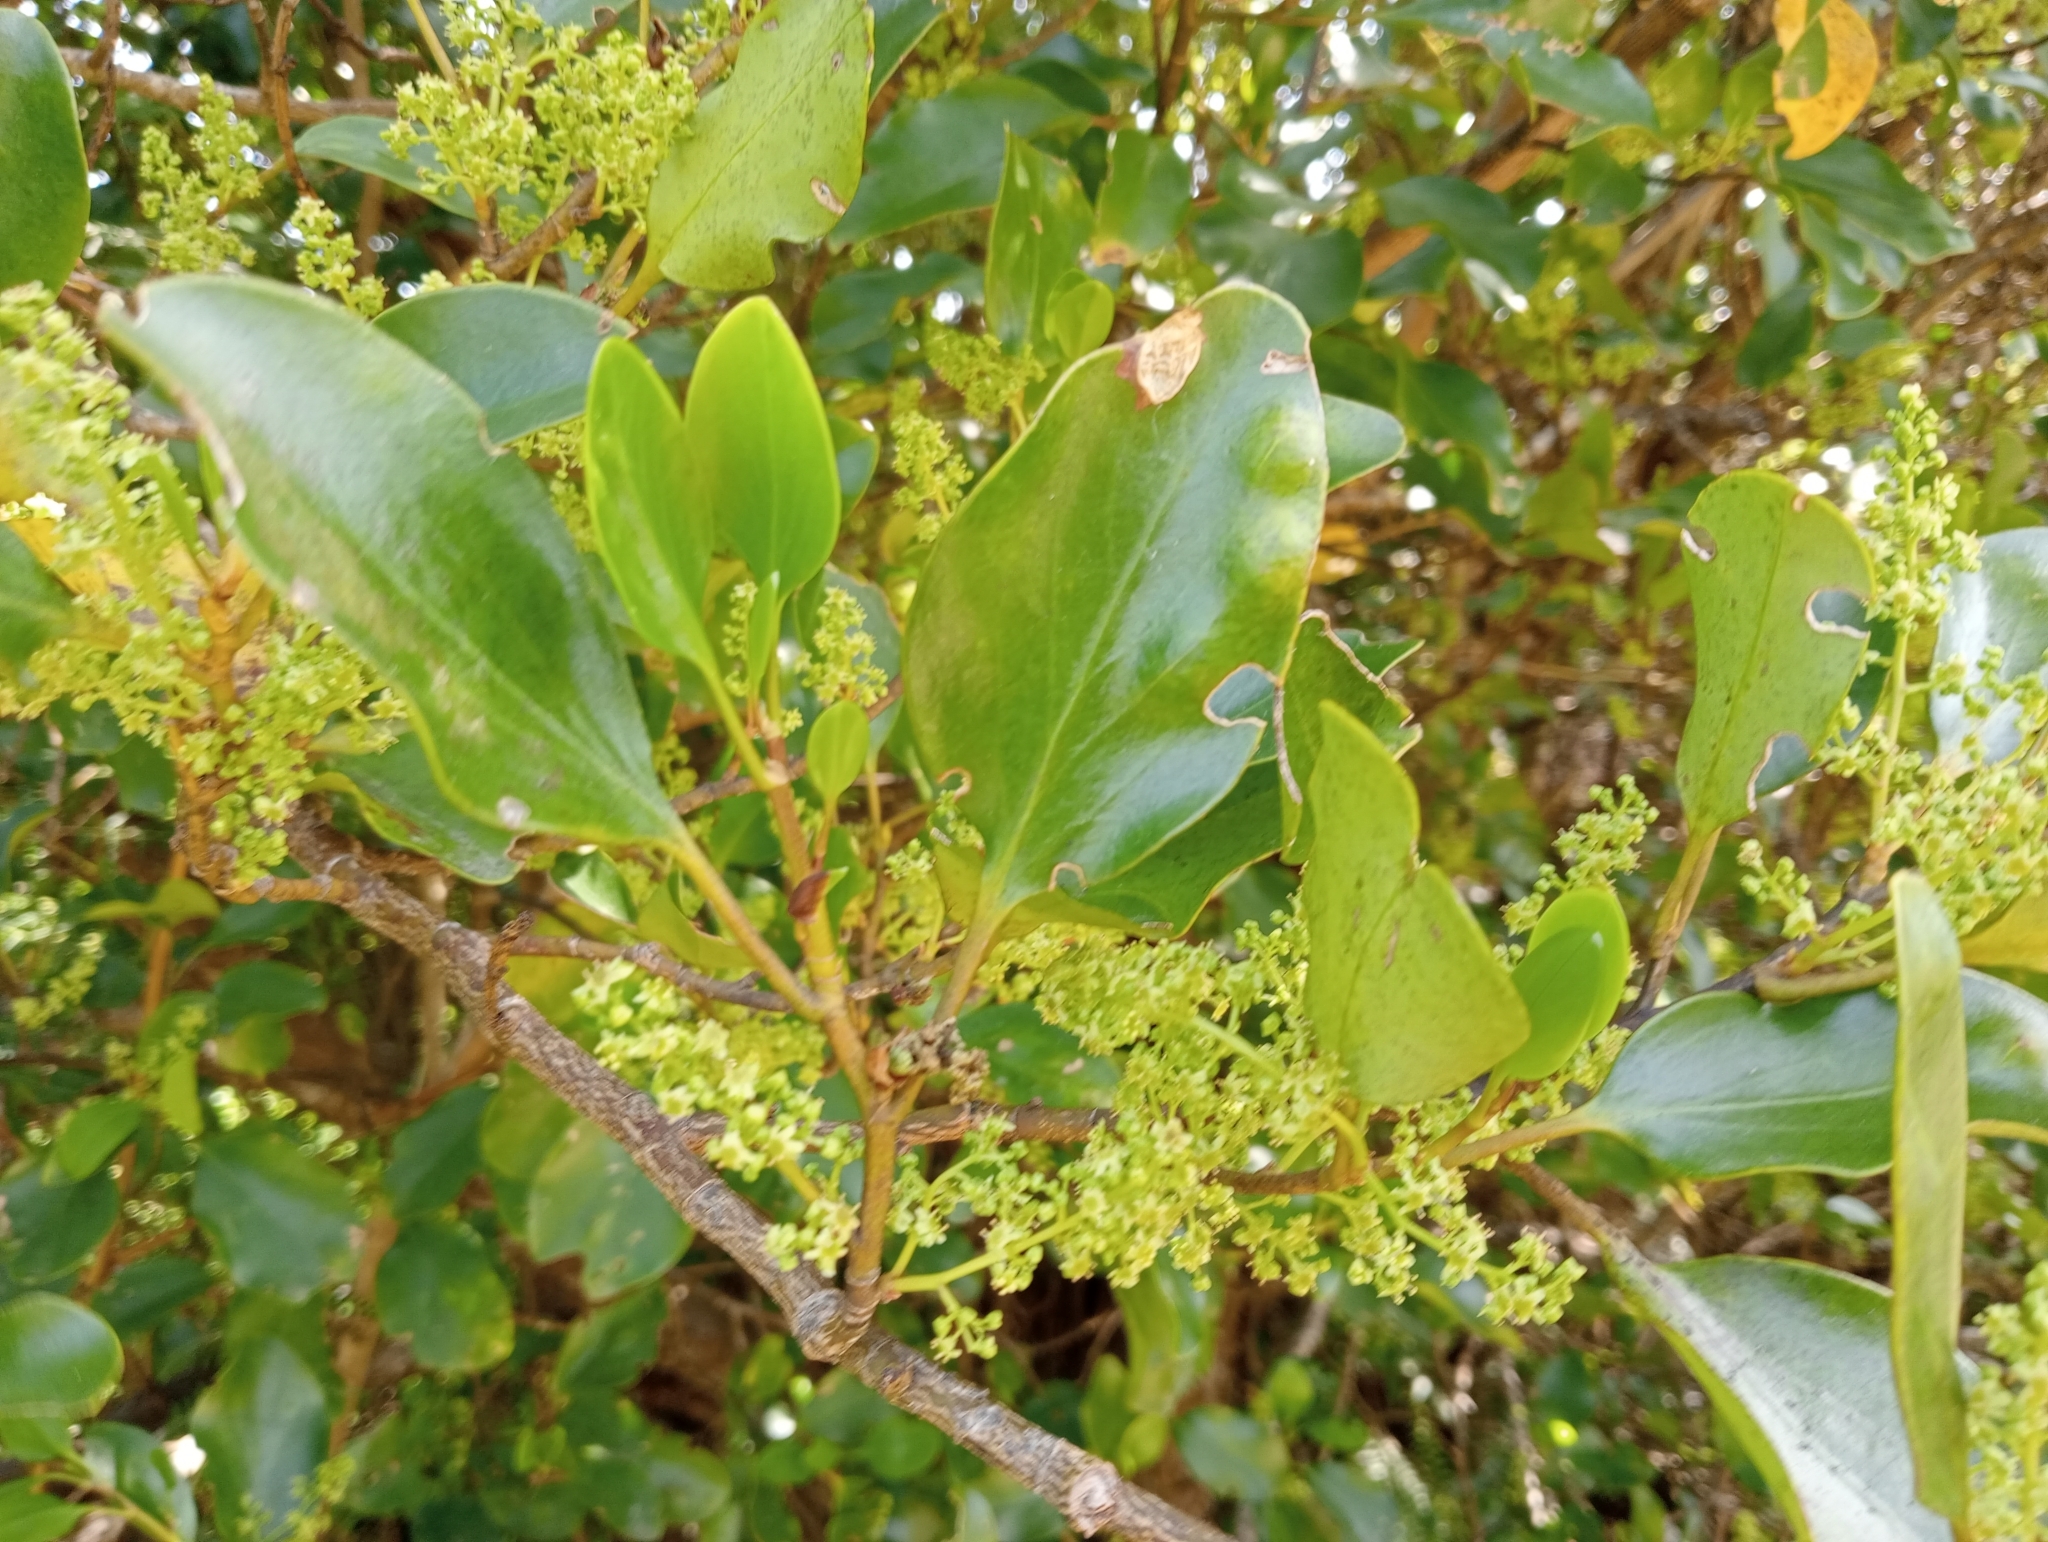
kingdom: Plantae
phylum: Tracheophyta
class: Magnoliopsida
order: Apiales
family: Griseliniaceae
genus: Griselinia
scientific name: Griselinia littoralis
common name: New zealand broadleaf
